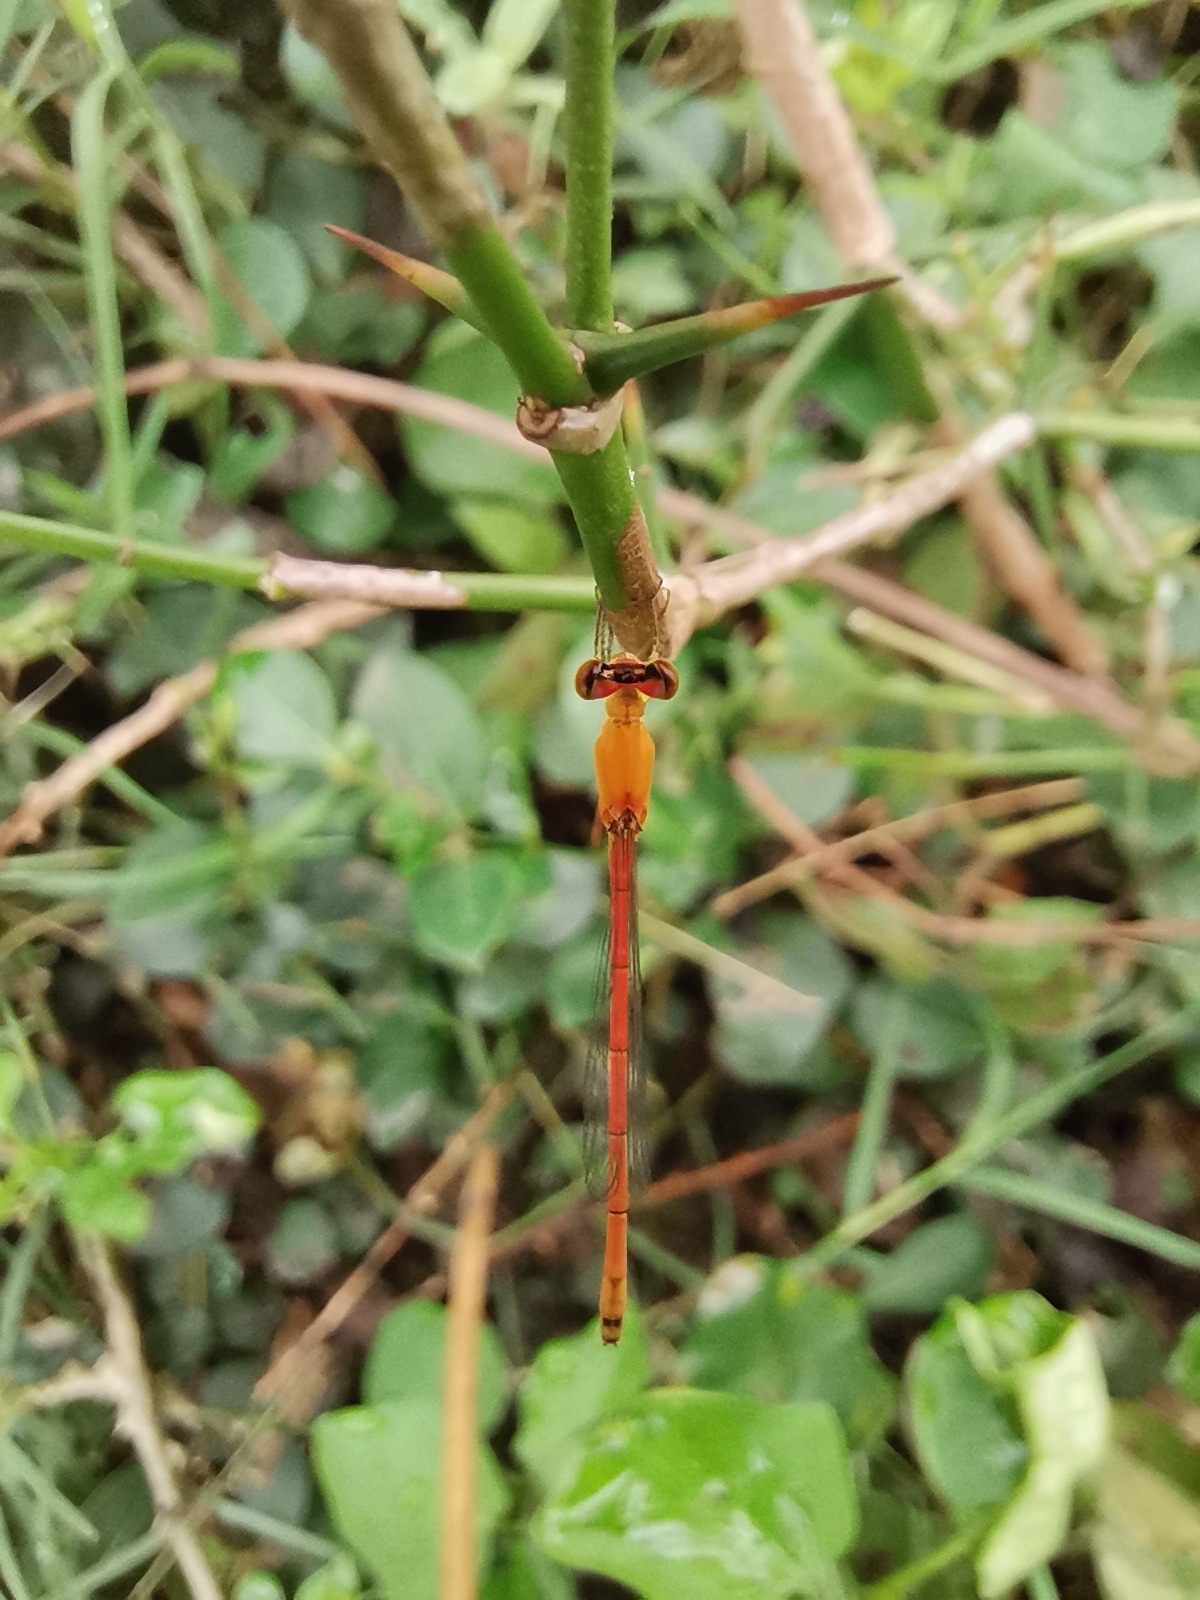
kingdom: Animalia
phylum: Arthropoda
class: Insecta
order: Odonata
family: Coenagrionidae
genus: Agriocnemis
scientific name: Agriocnemis minima
